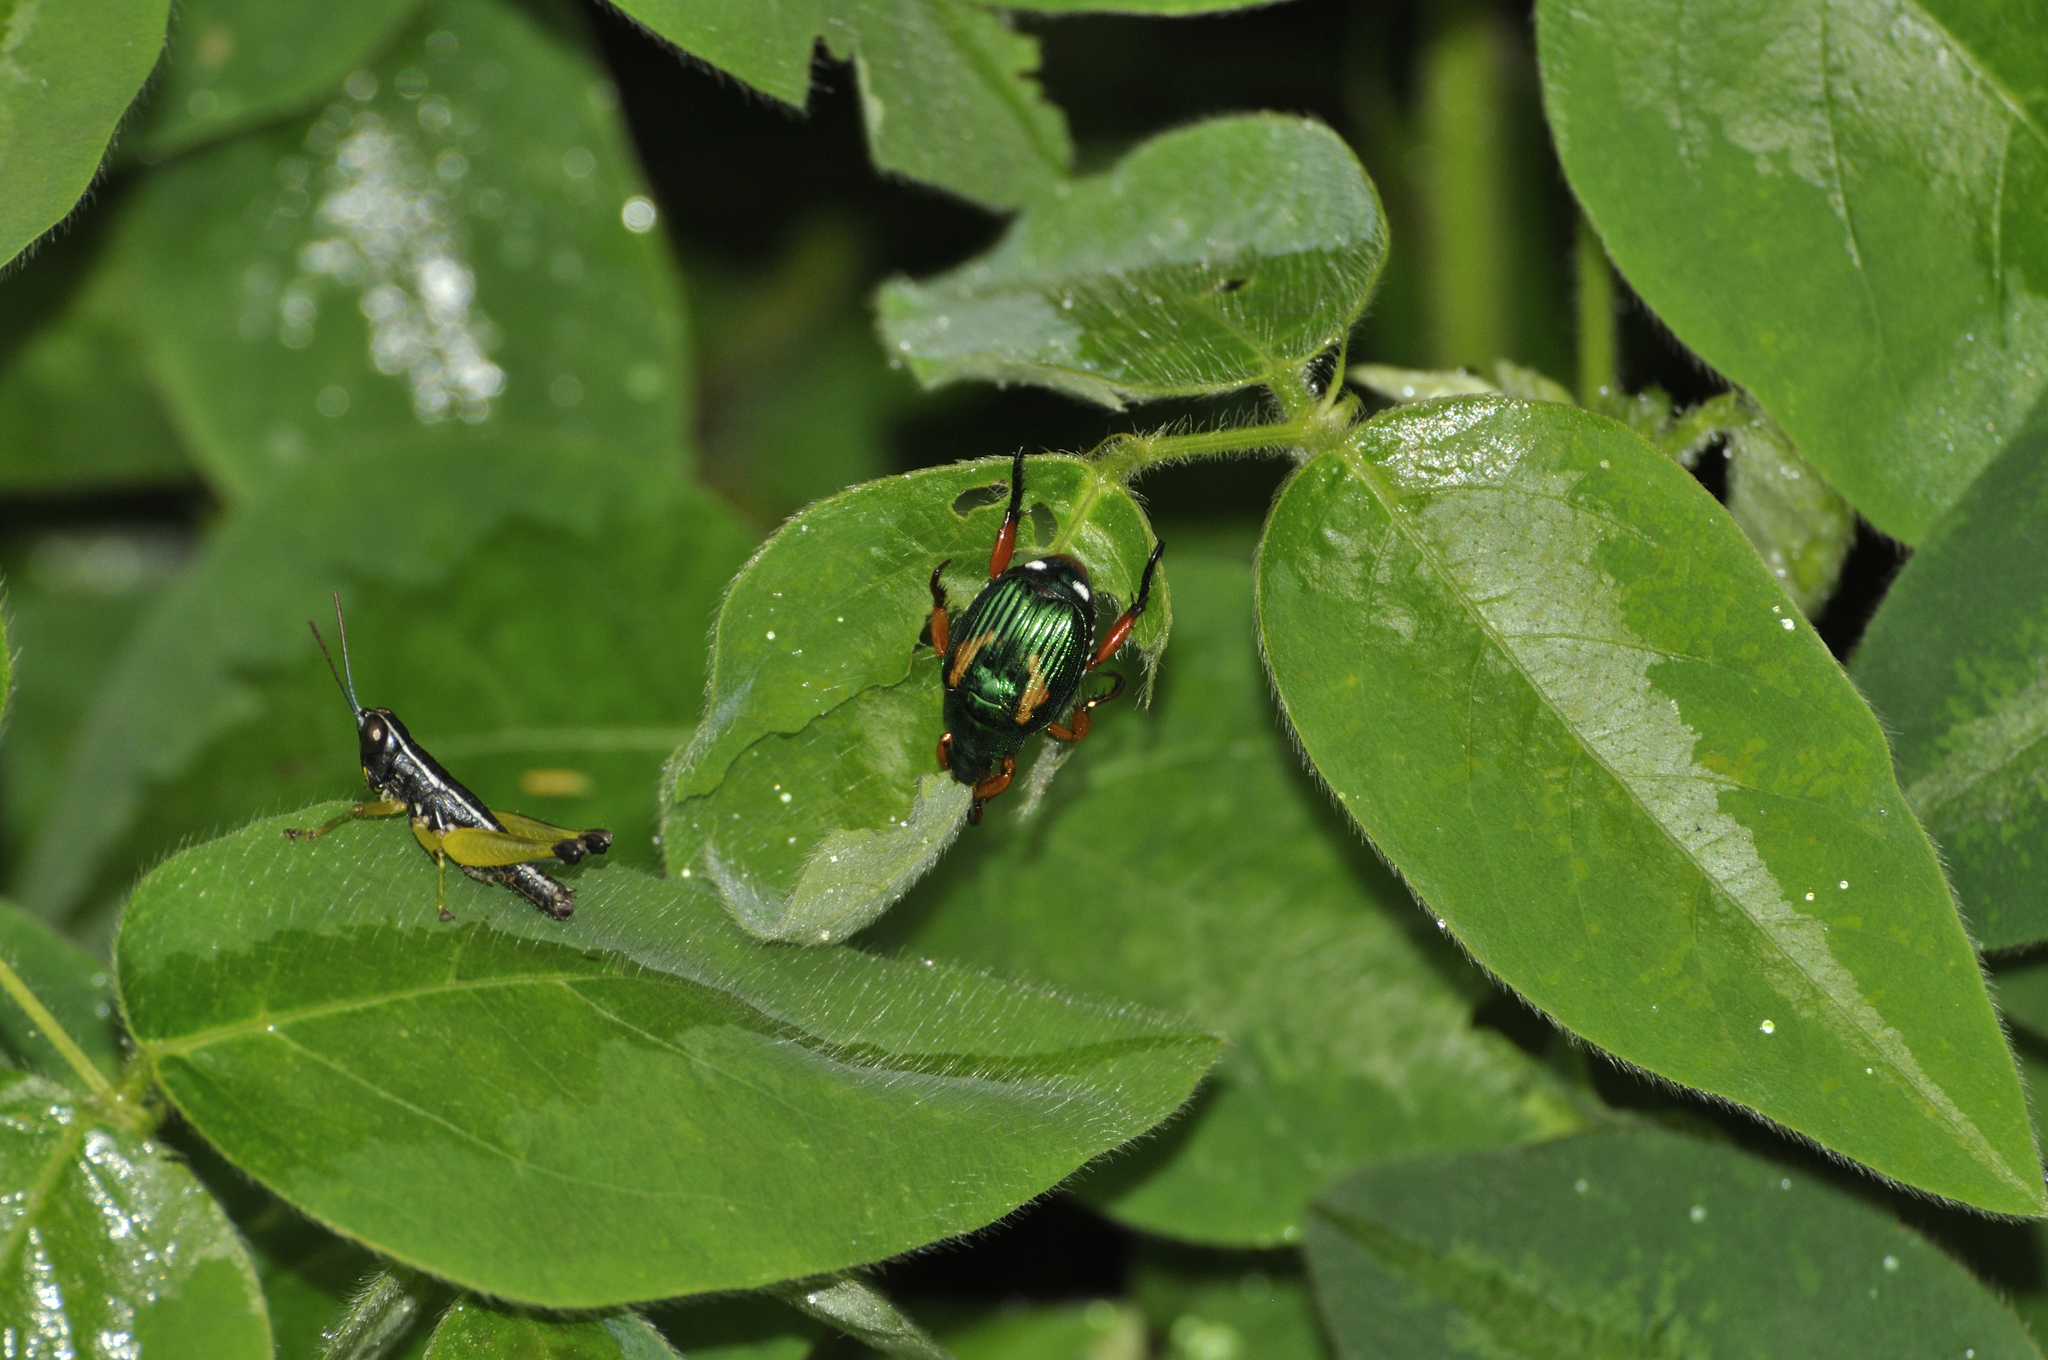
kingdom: Animalia
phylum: Arthropoda
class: Insecta
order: Orthoptera
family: Acrididae
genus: Labidioloryma
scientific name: Labidioloryma strictoforceps
